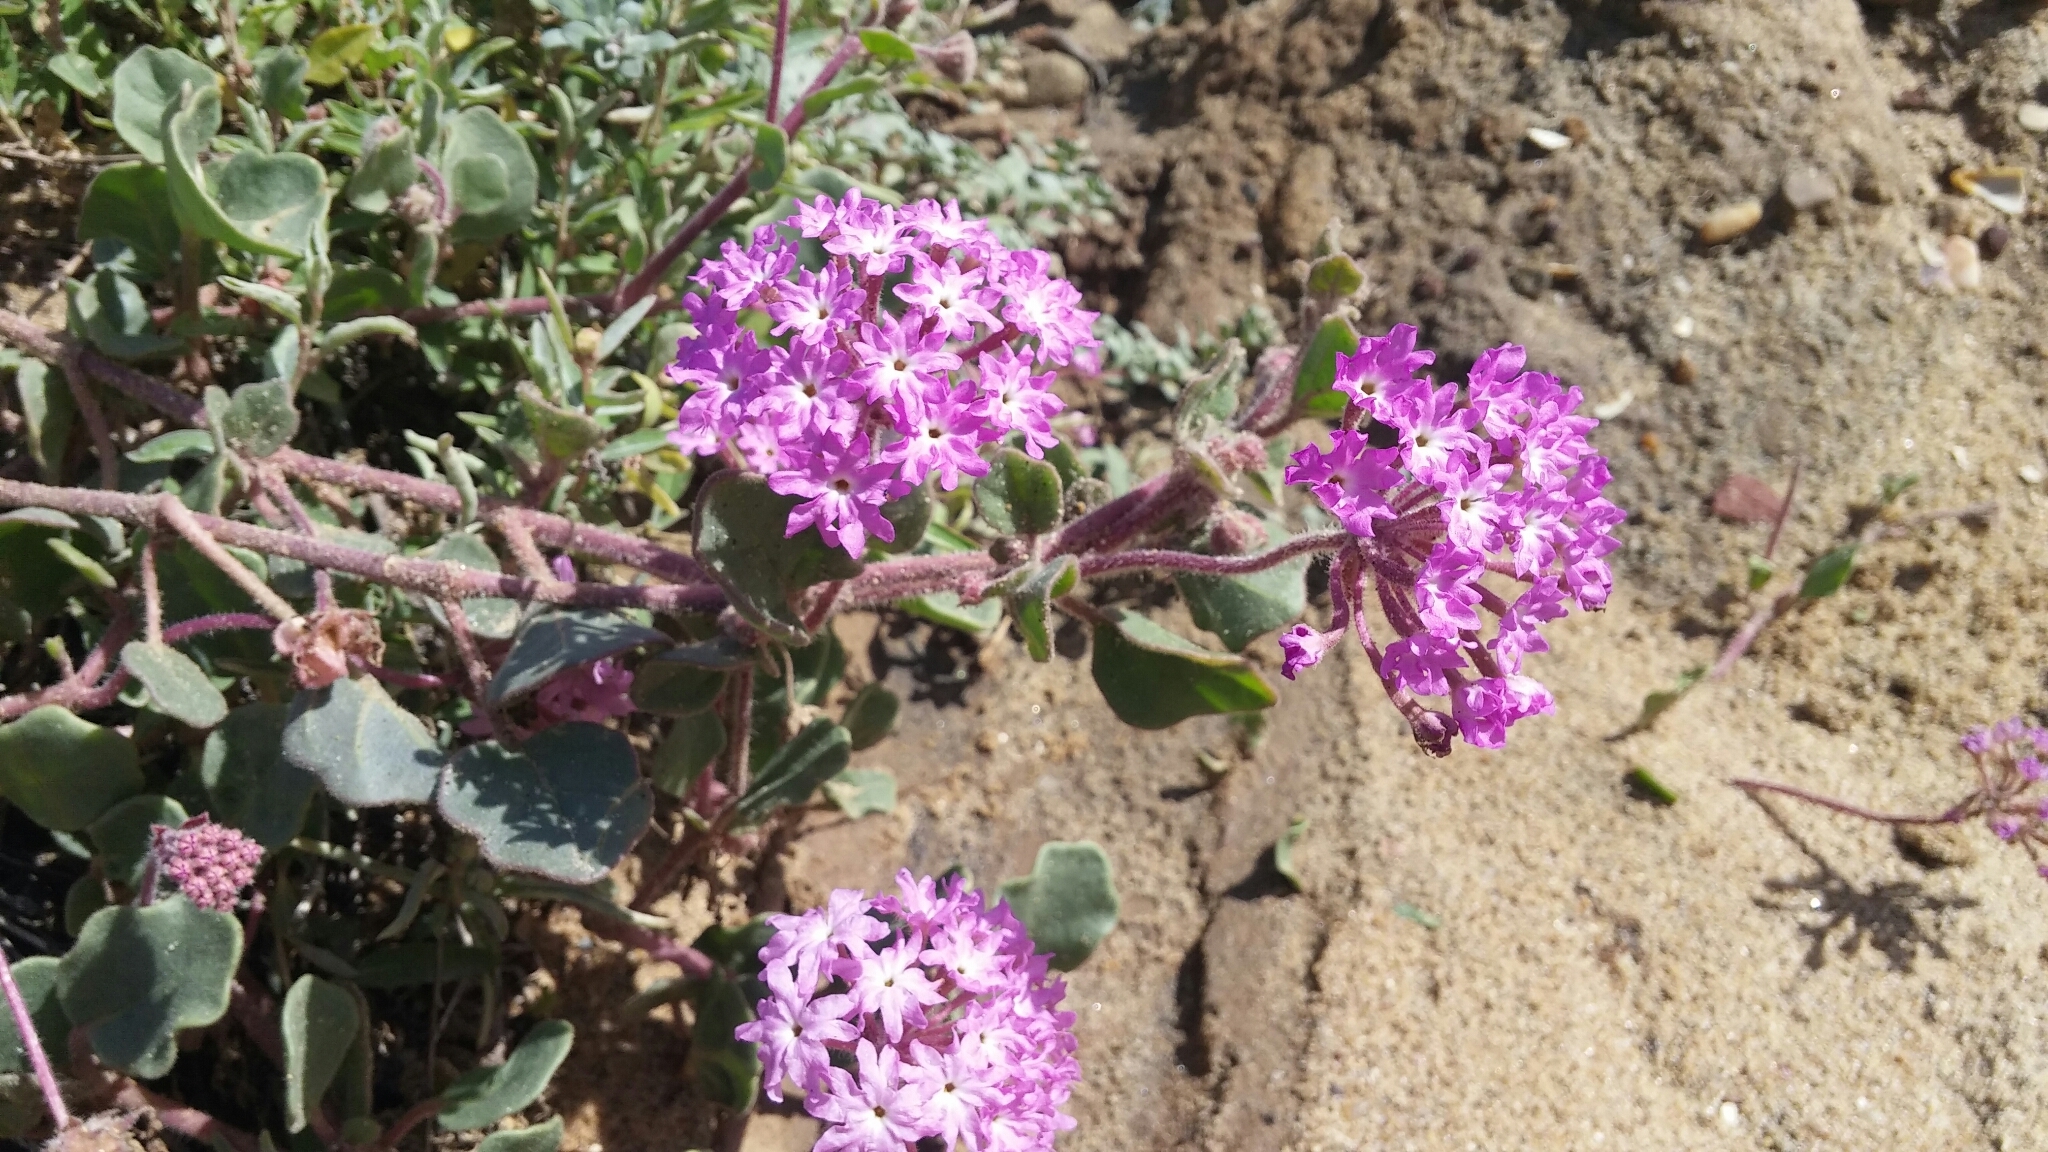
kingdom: Plantae
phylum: Tracheophyta
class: Magnoliopsida
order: Caryophyllales
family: Nyctaginaceae
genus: Abronia
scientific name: Abronia umbellata
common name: Sand-verbena
